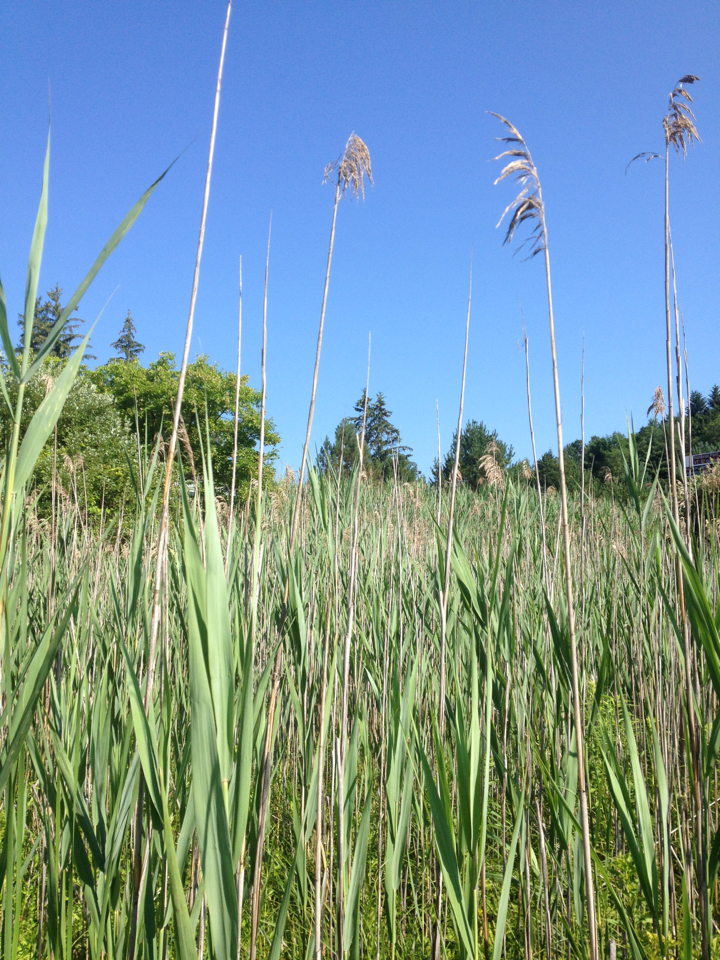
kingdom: Plantae
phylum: Tracheophyta
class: Liliopsida
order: Poales
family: Poaceae
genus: Phragmites
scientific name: Phragmites australis
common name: Common reed
